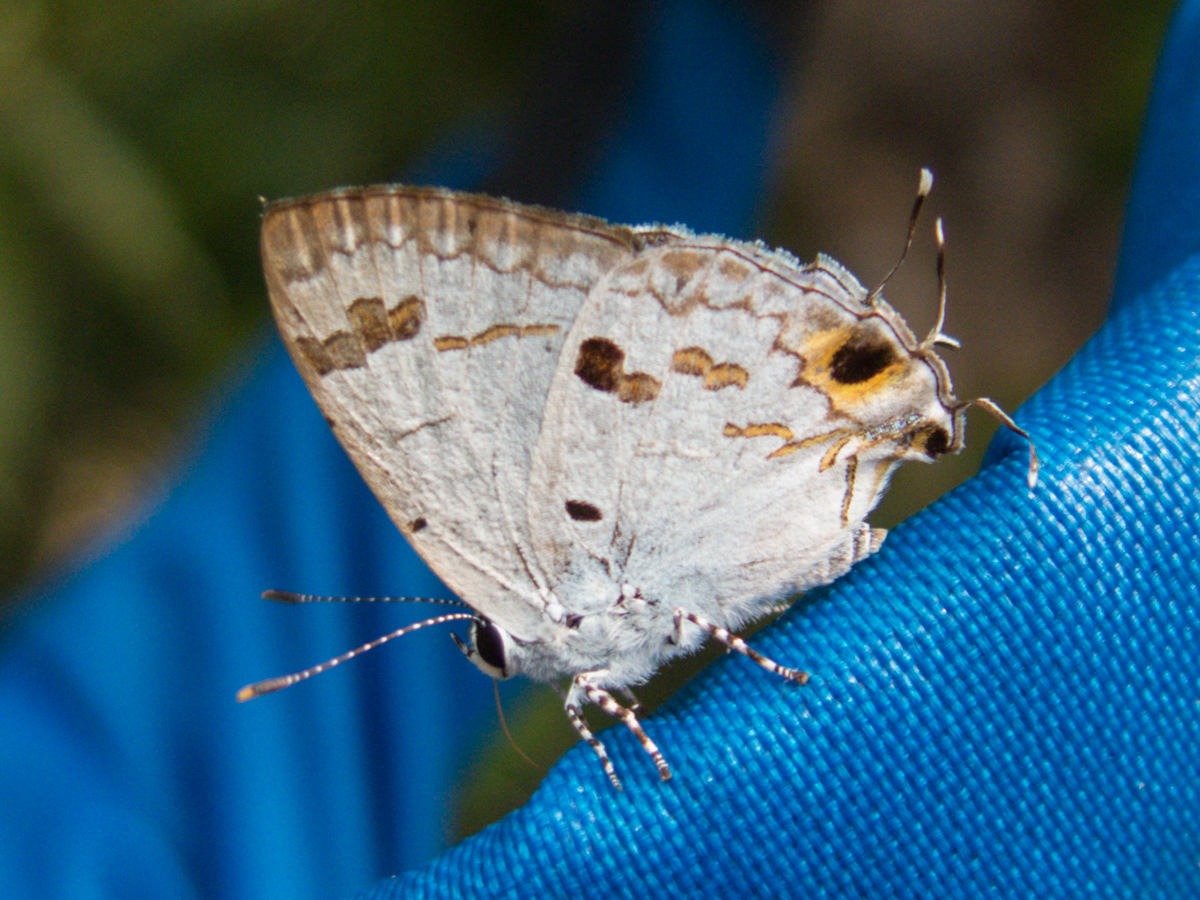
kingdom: Animalia
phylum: Arthropoda
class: Insecta
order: Lepidoptera
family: Lycaenidae
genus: Chliaria
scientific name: Chliaria othona
